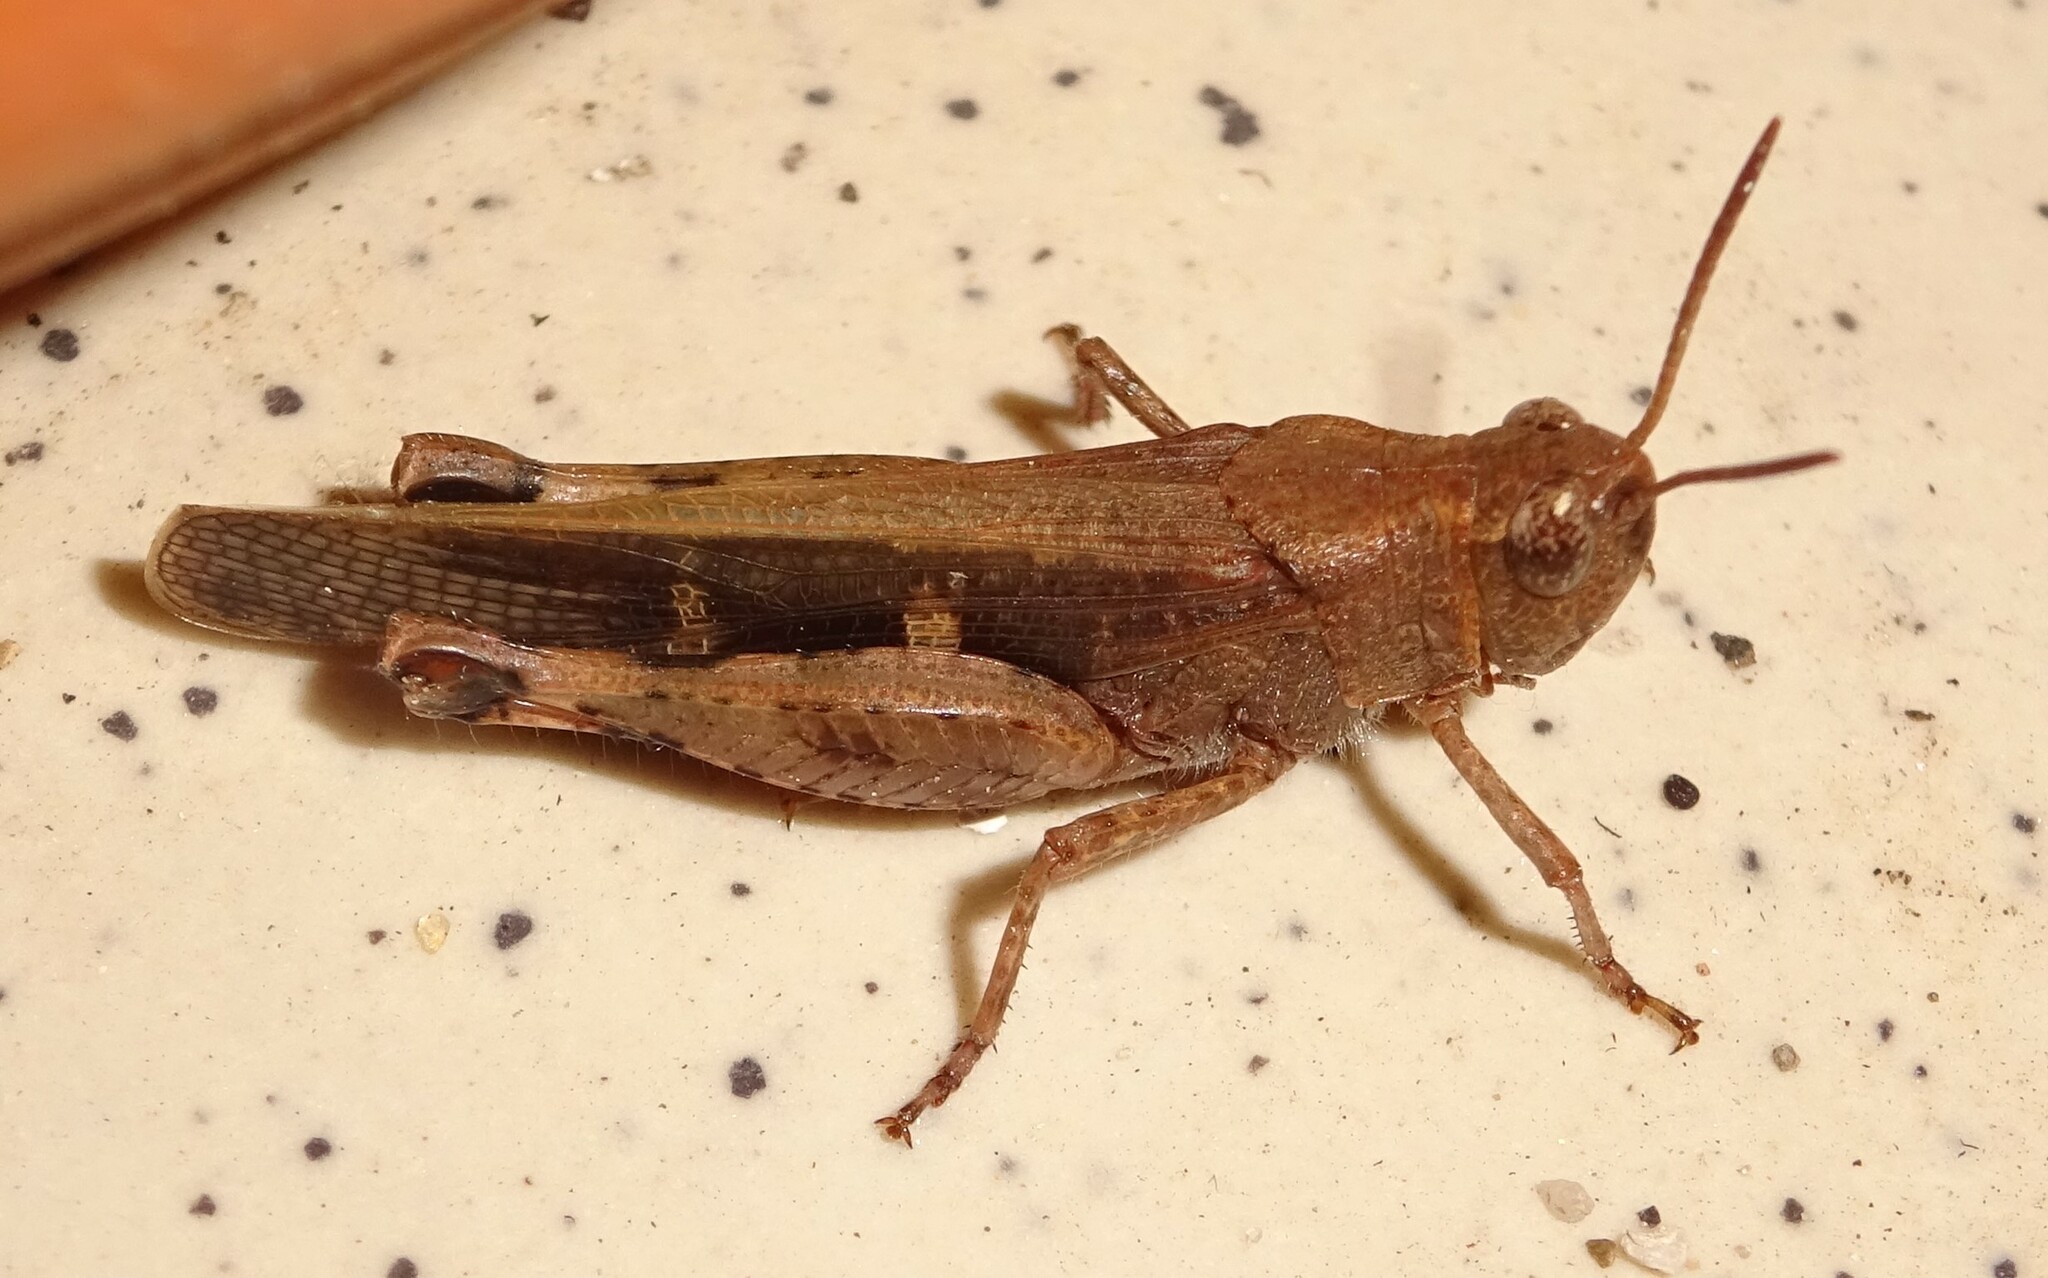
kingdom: Animalia
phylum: Arthropoda
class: Insecta
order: Orthoptera
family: Acrididae
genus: Aiolopus
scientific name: Aiolopus strepens
